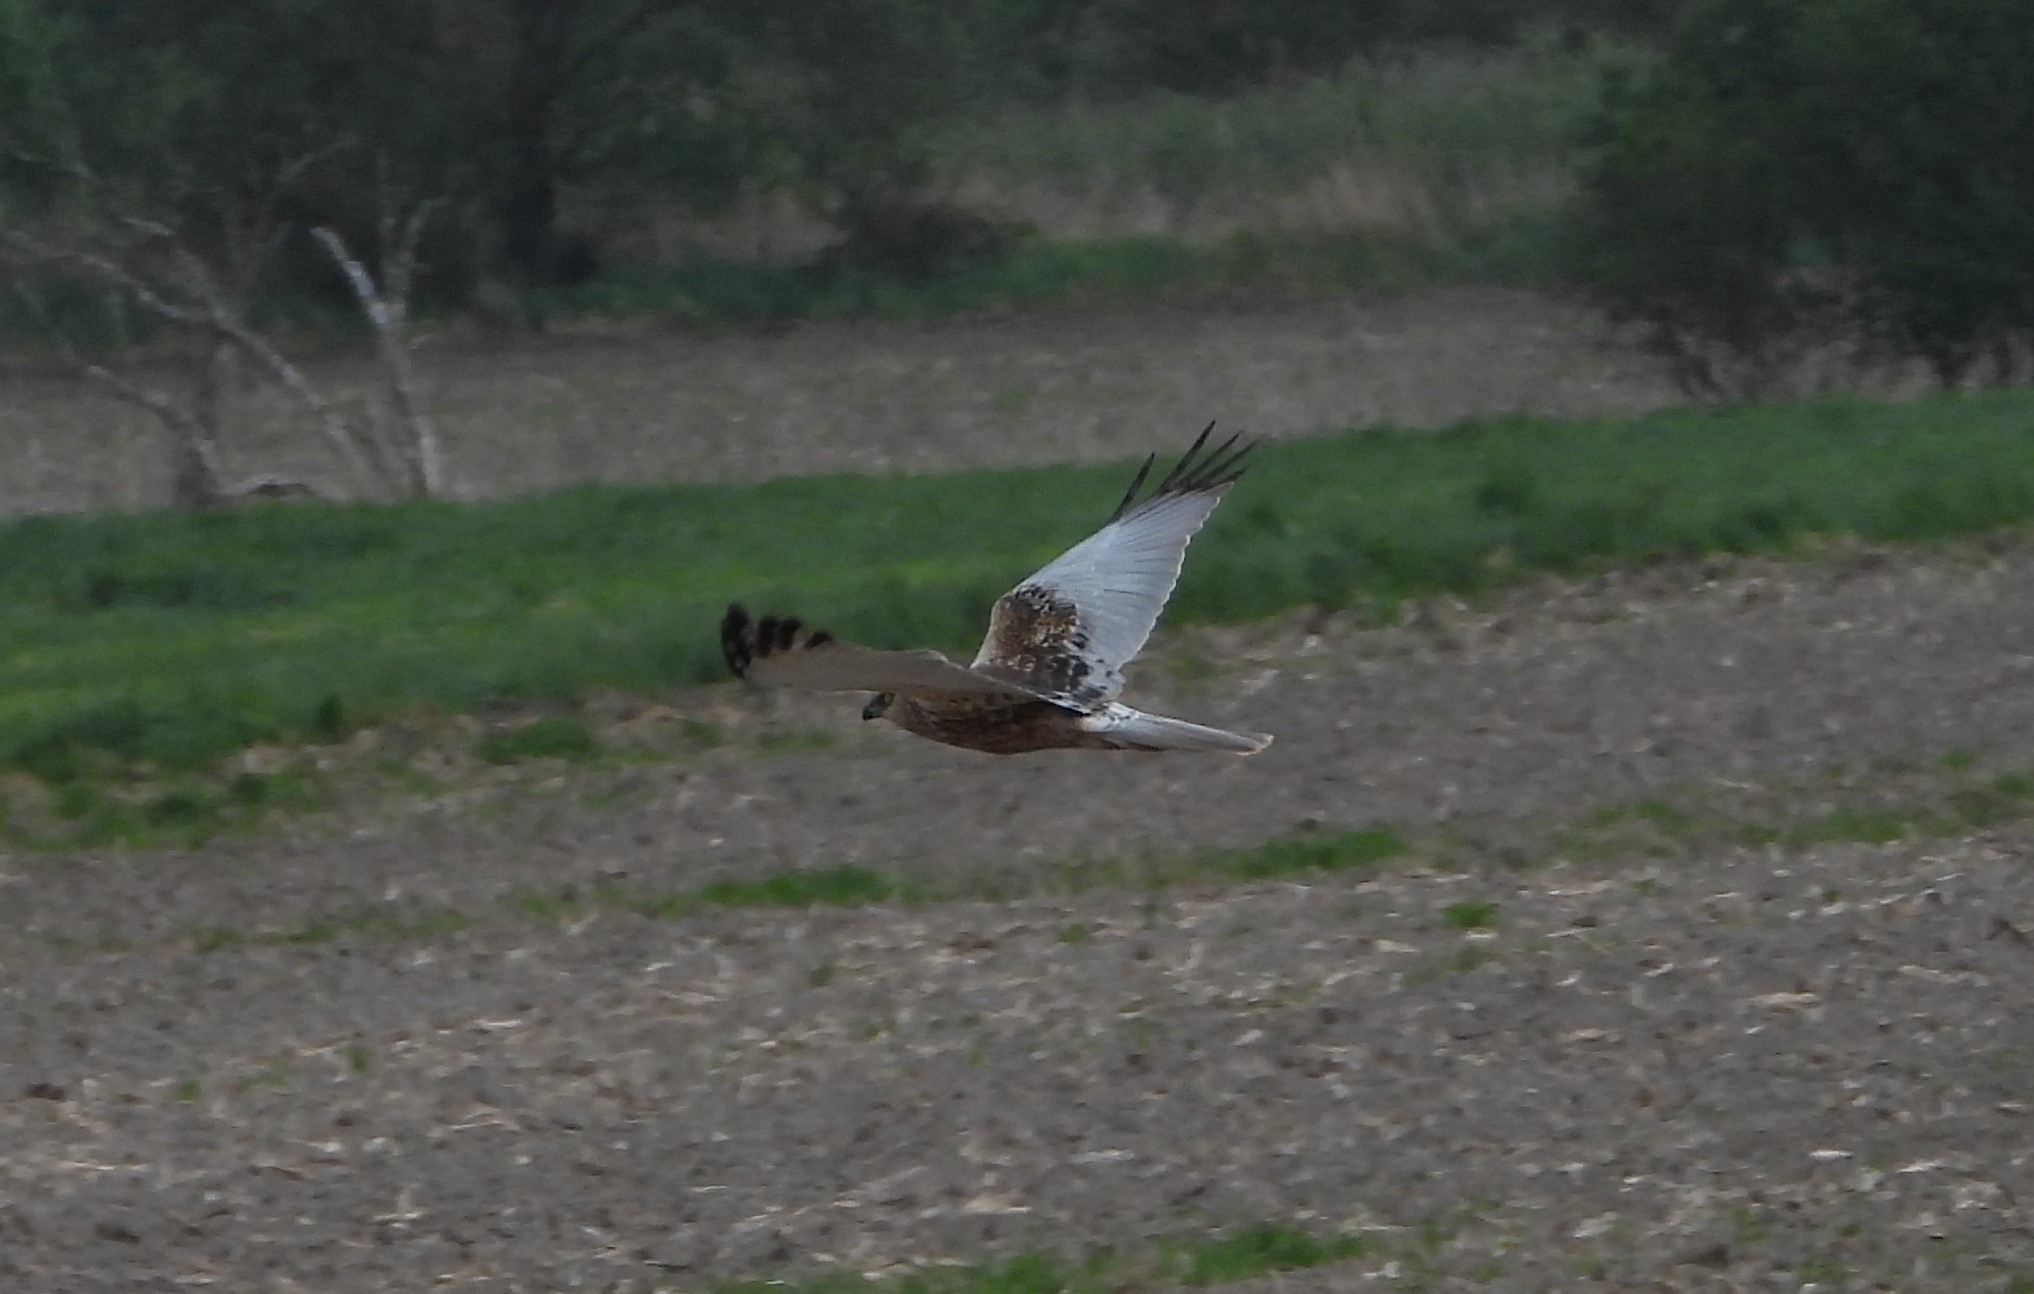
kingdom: Animalia
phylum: Chordata
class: Aves
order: Accipitriformes
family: Accipitridae
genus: Circus
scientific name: Circus aeruginosus
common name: Western marsh harrier
